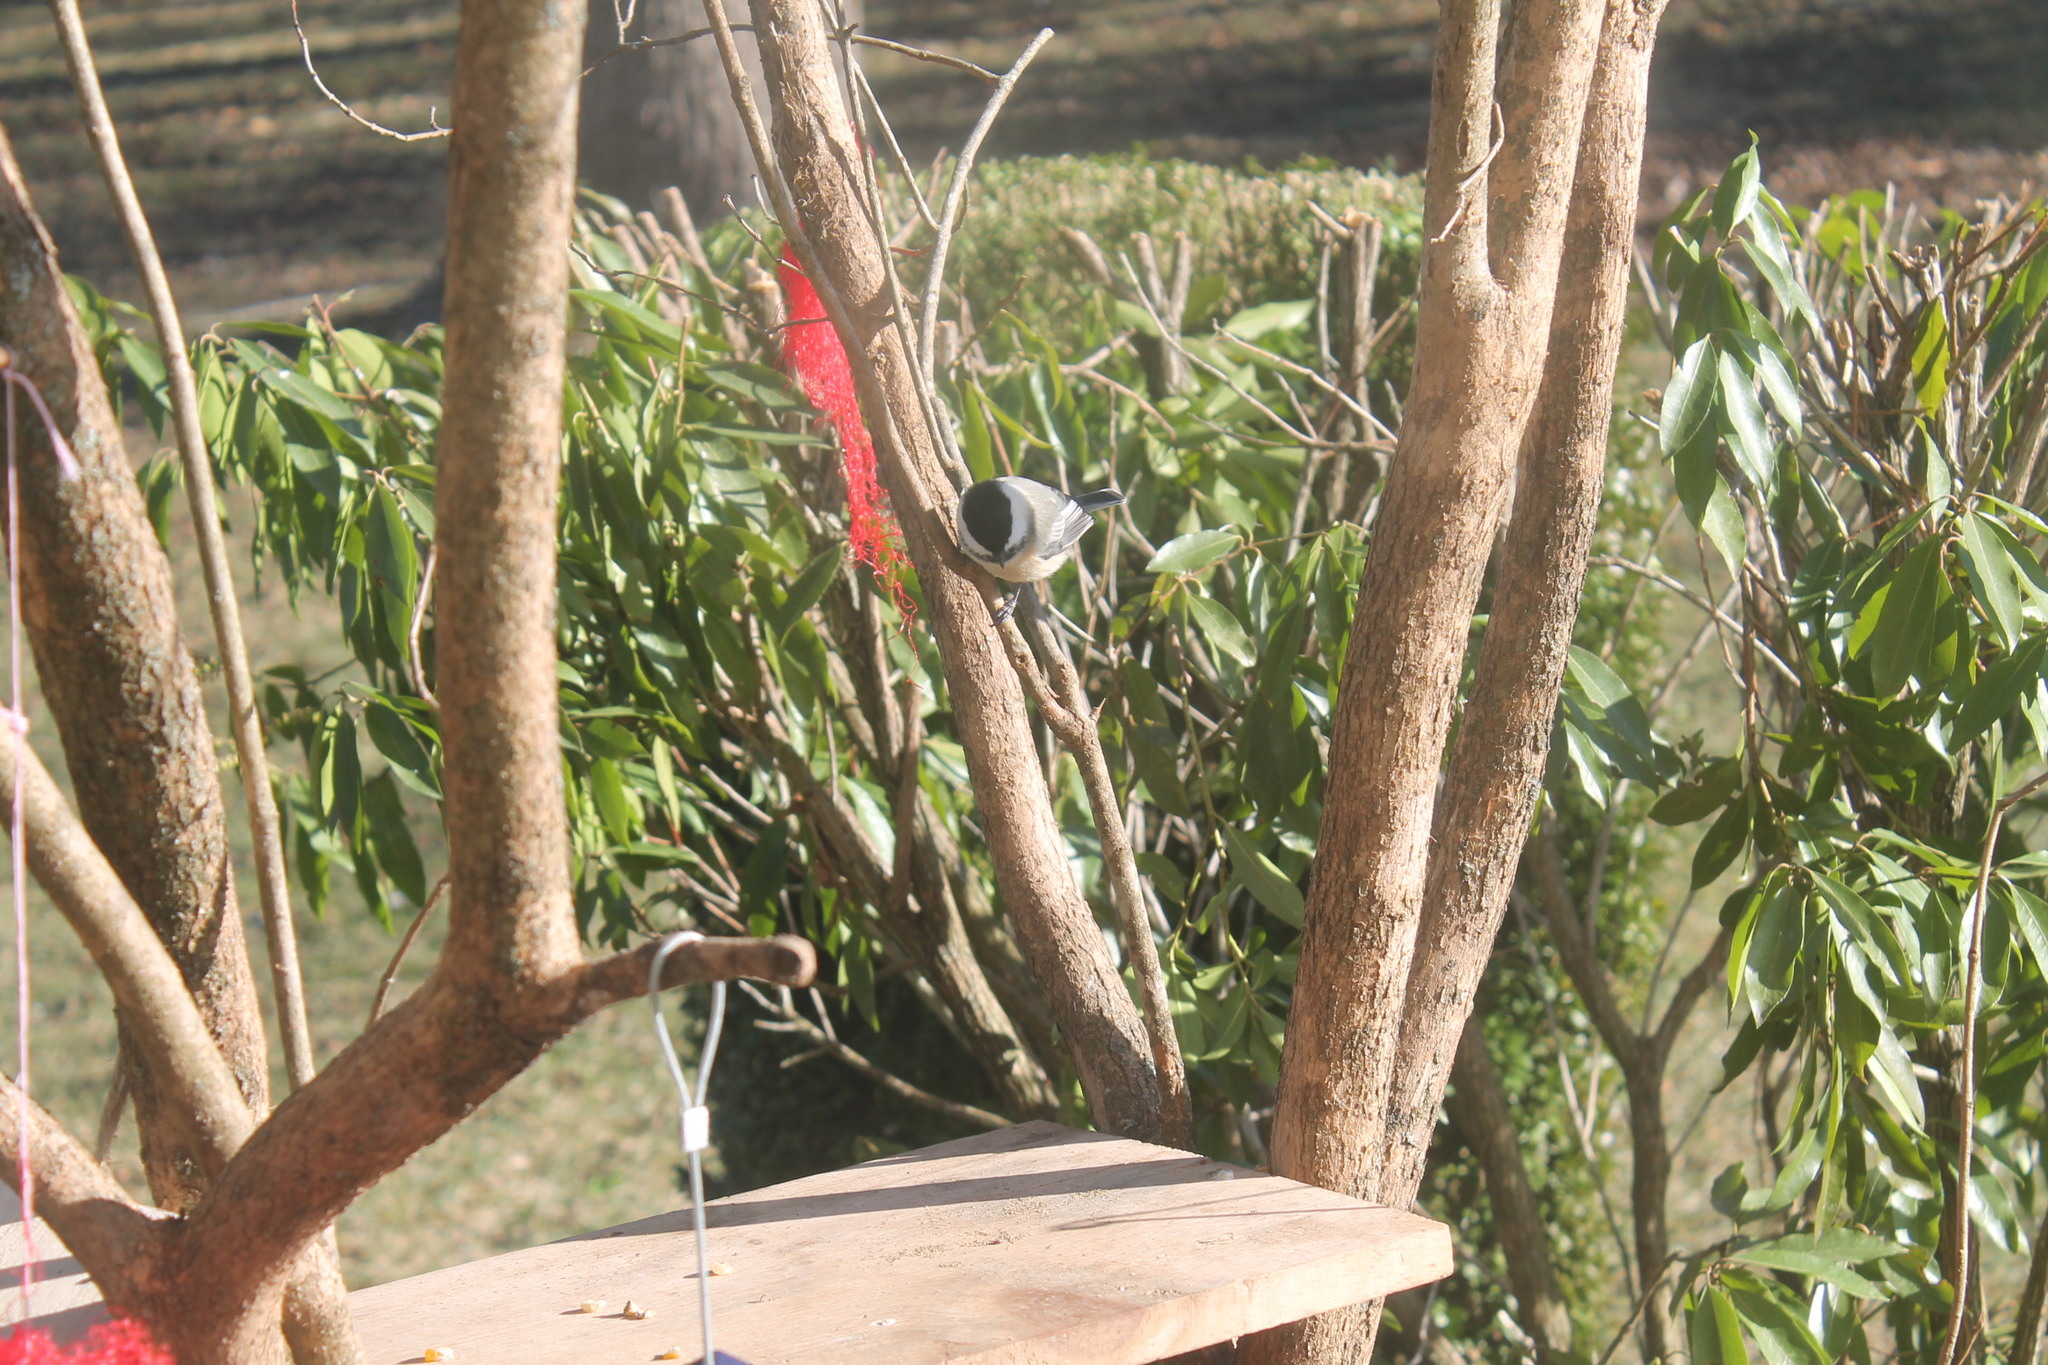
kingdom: Animalia
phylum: Chordata
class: Aves
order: Passeriformes
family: Paridae
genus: Poecile
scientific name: Poecile atricapillus
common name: Black-capped chickadee
